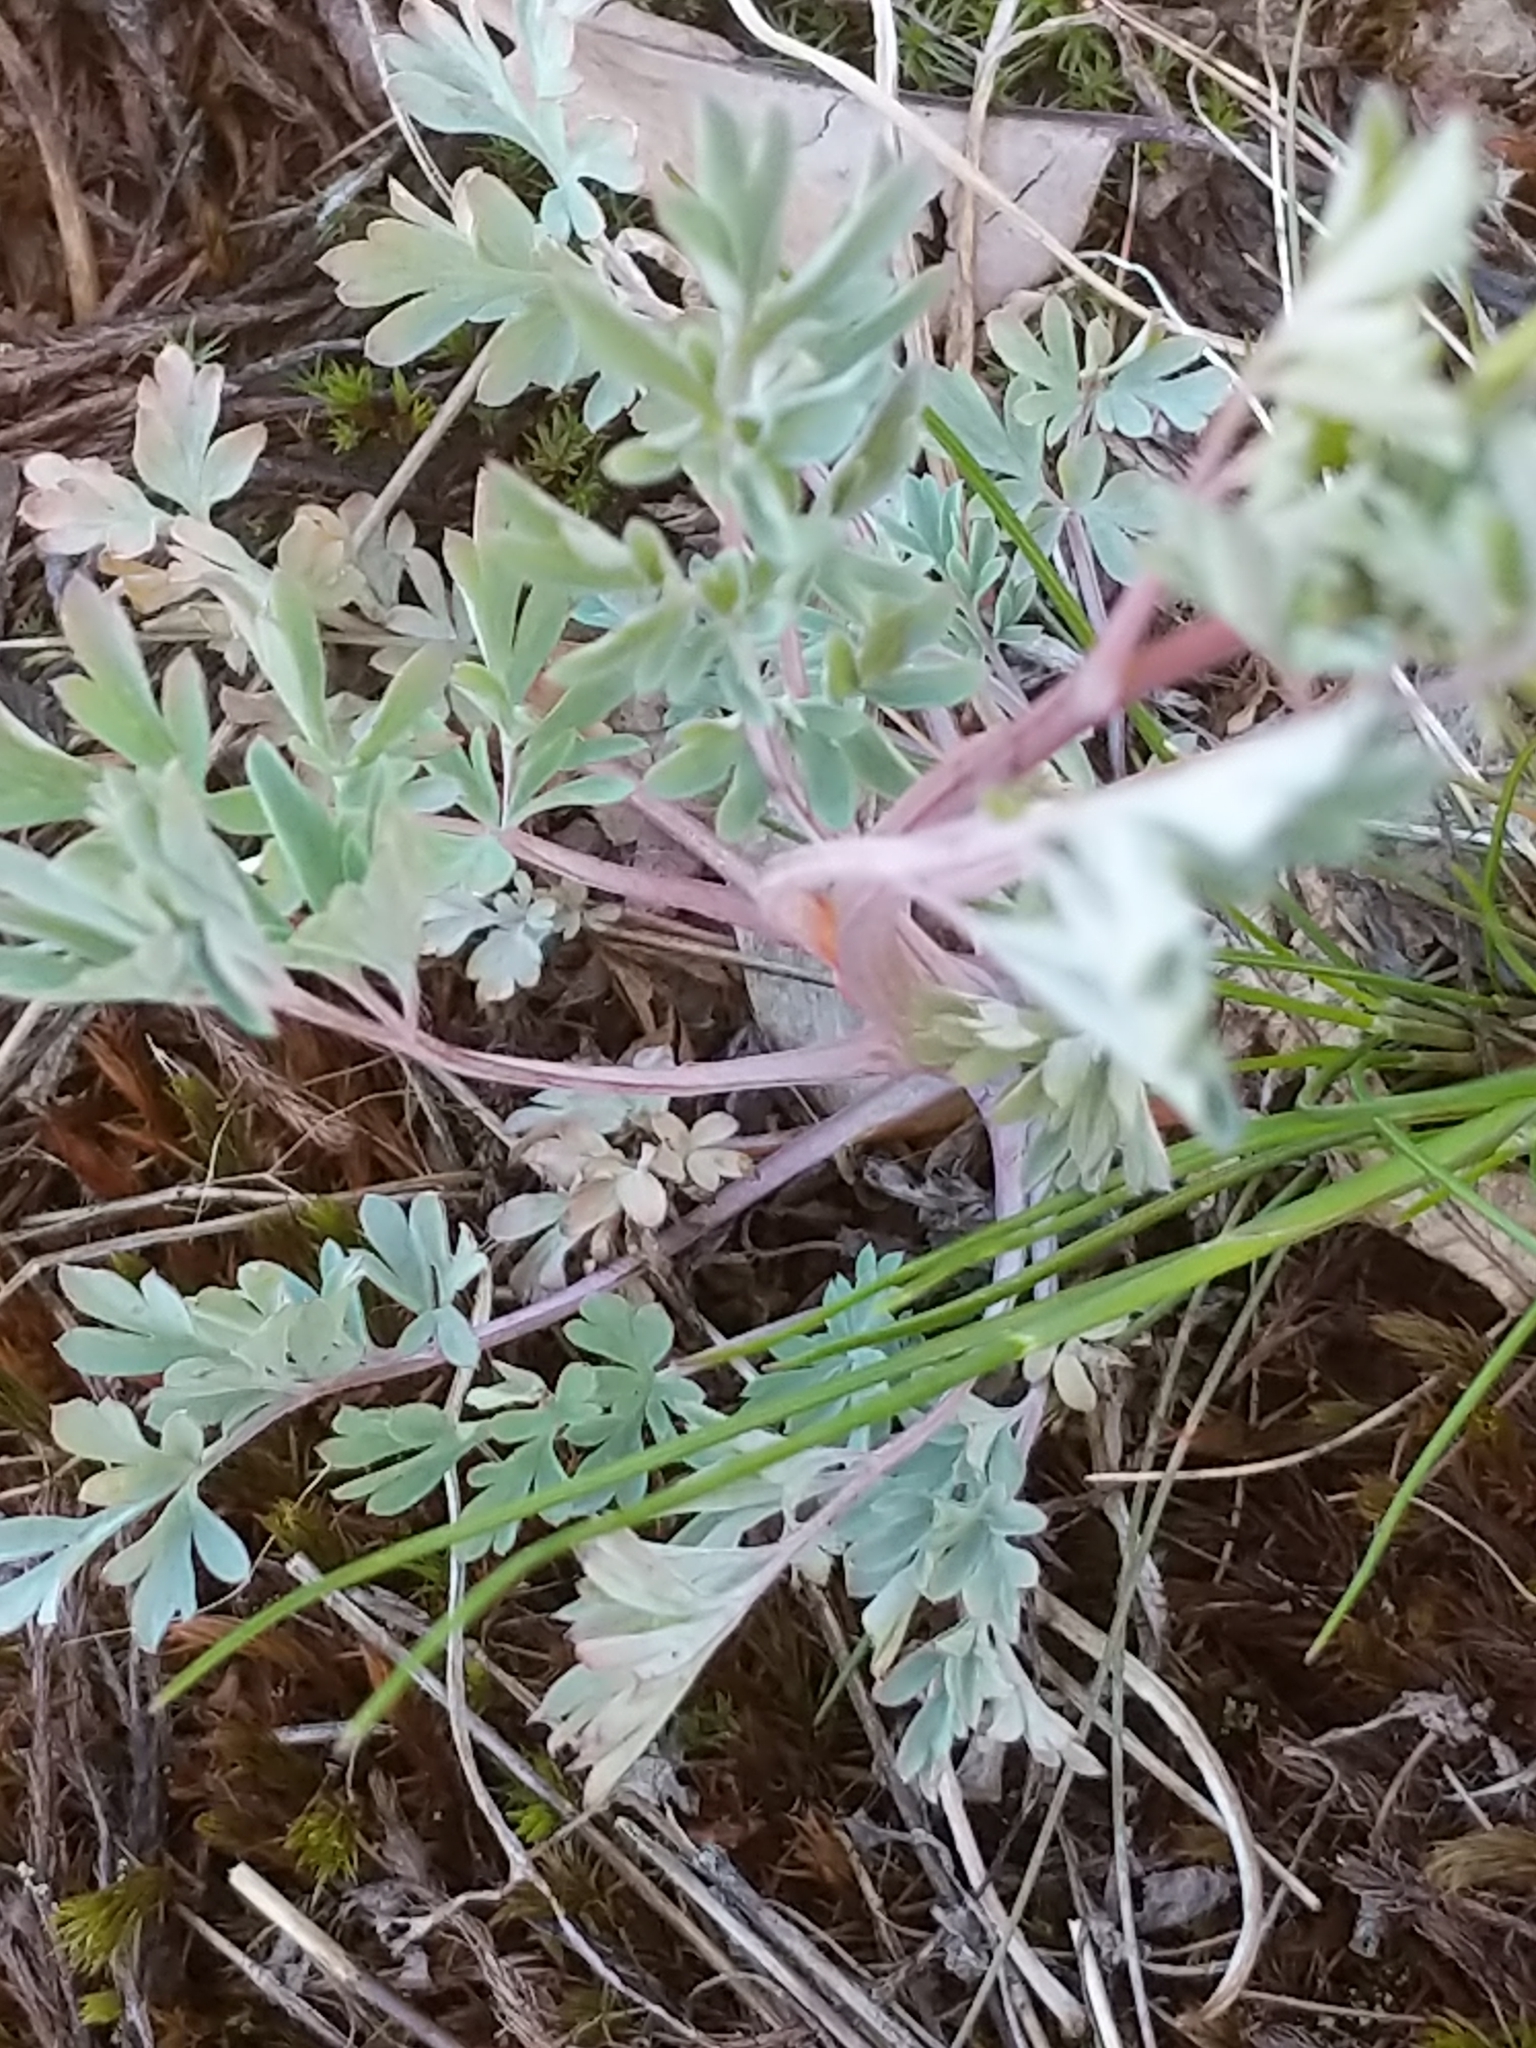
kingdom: Plantae
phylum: Tracheophyta
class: Magnoliopsida
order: Ranunculales
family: Papaveraceae
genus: Capnoides
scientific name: Capnoides sempervirens
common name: Rock harlequin
